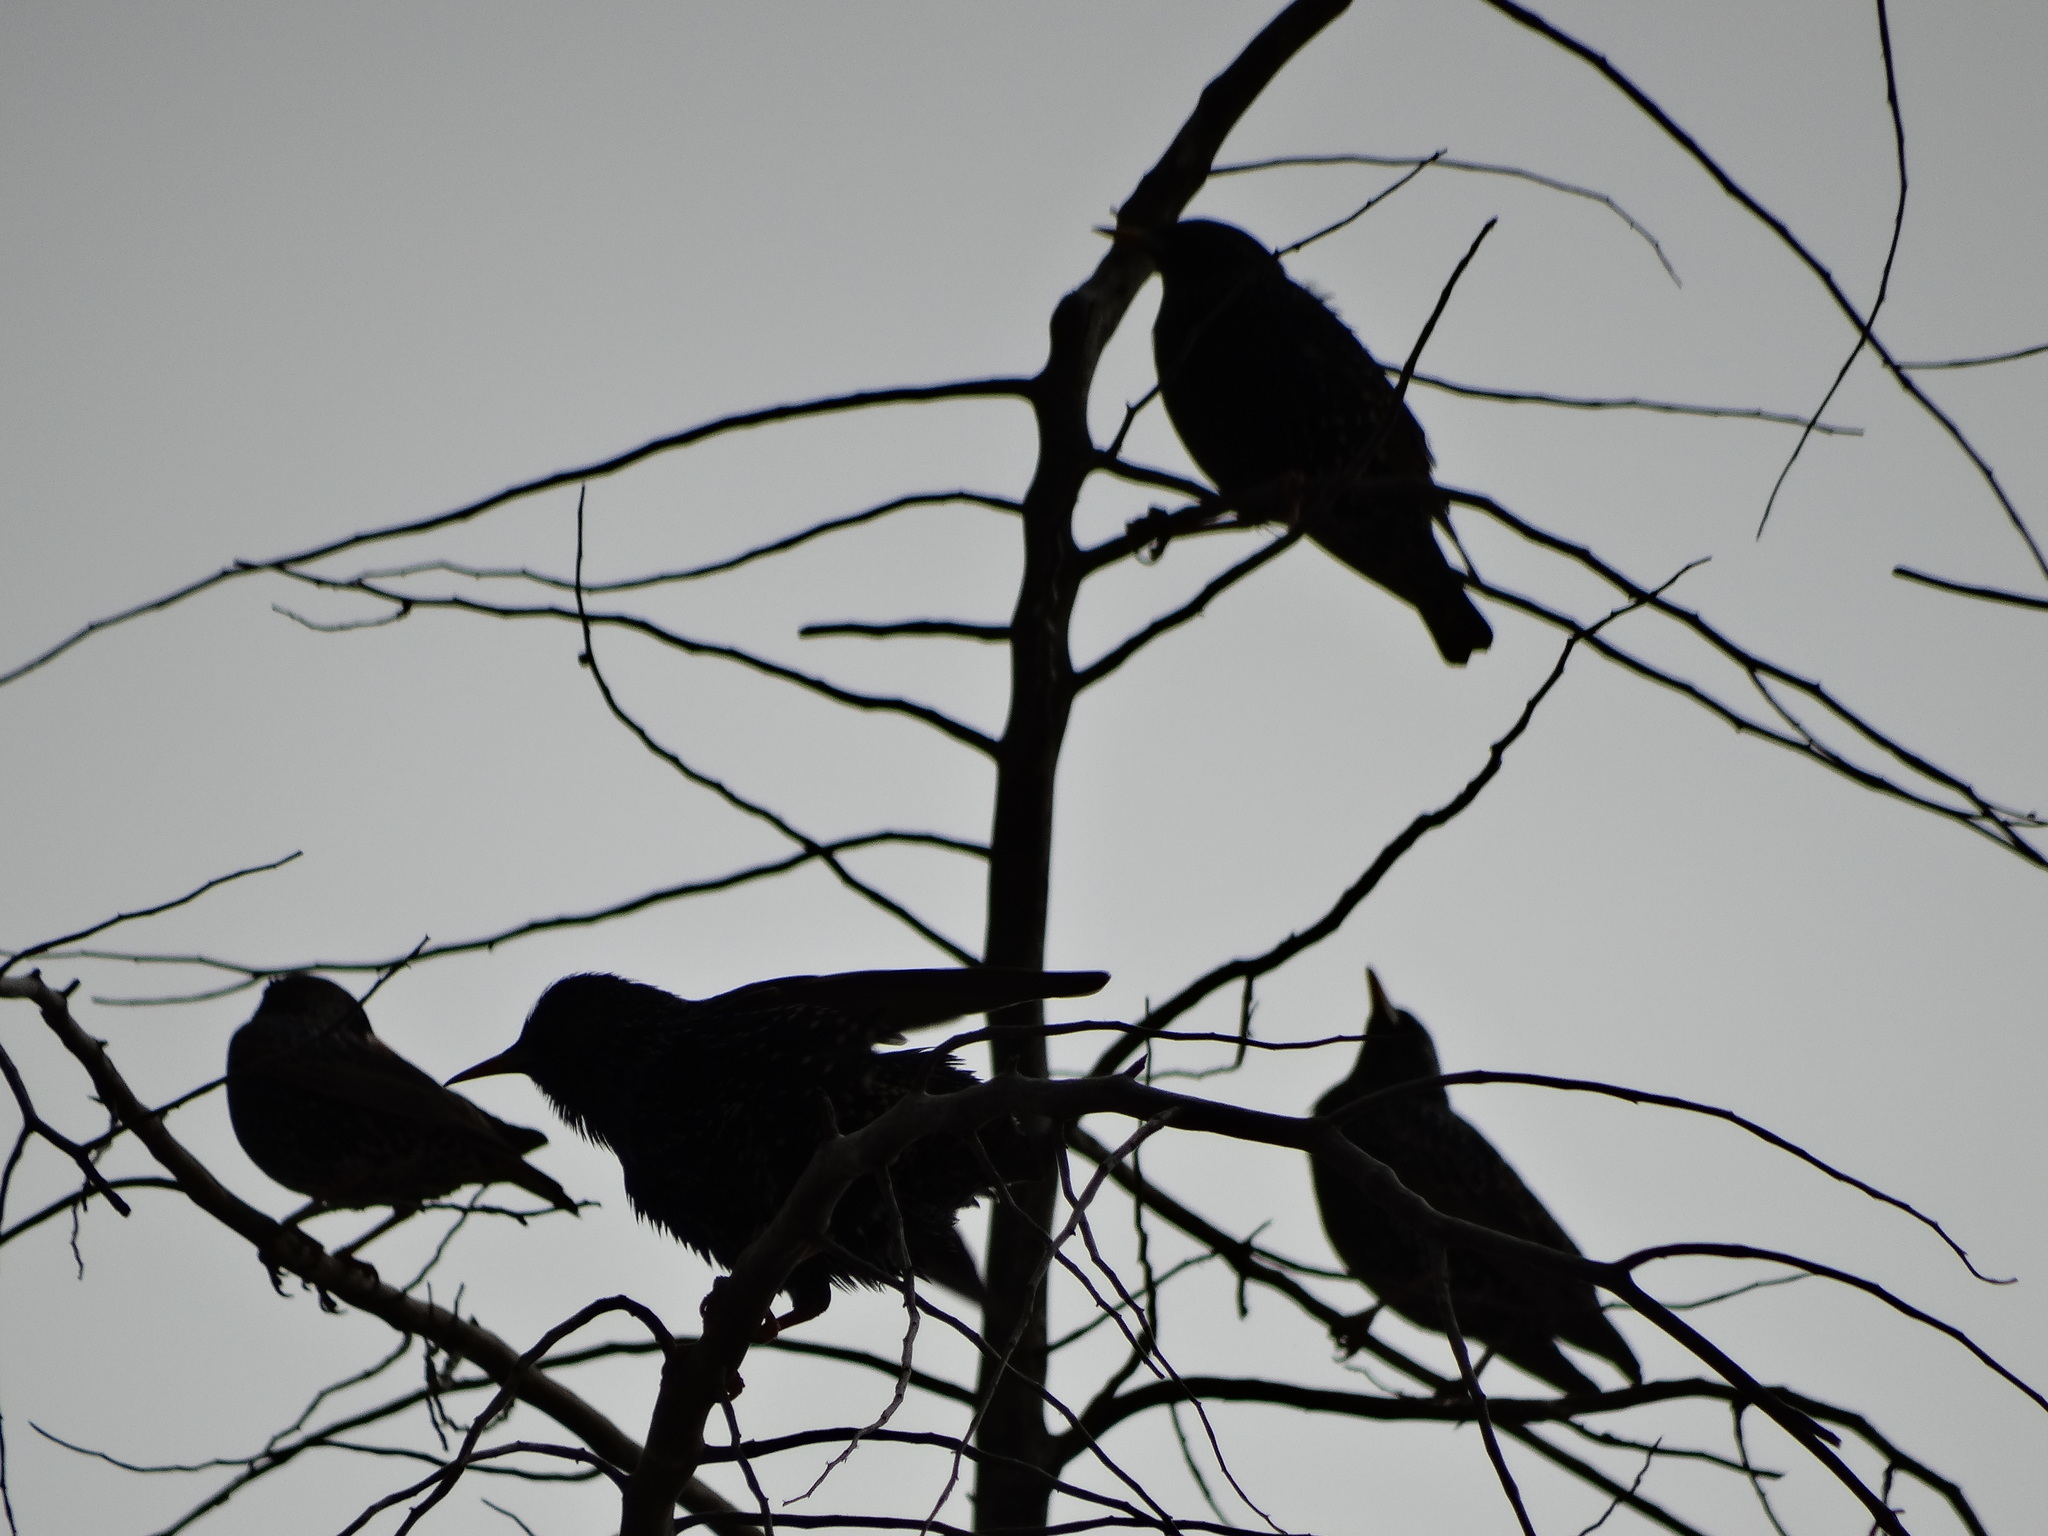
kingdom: Animalia
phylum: Chordata
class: Aves
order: Passeriformes
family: Sturnidae
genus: Sturnus
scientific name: Sturnus vulgaris
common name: Common starling
